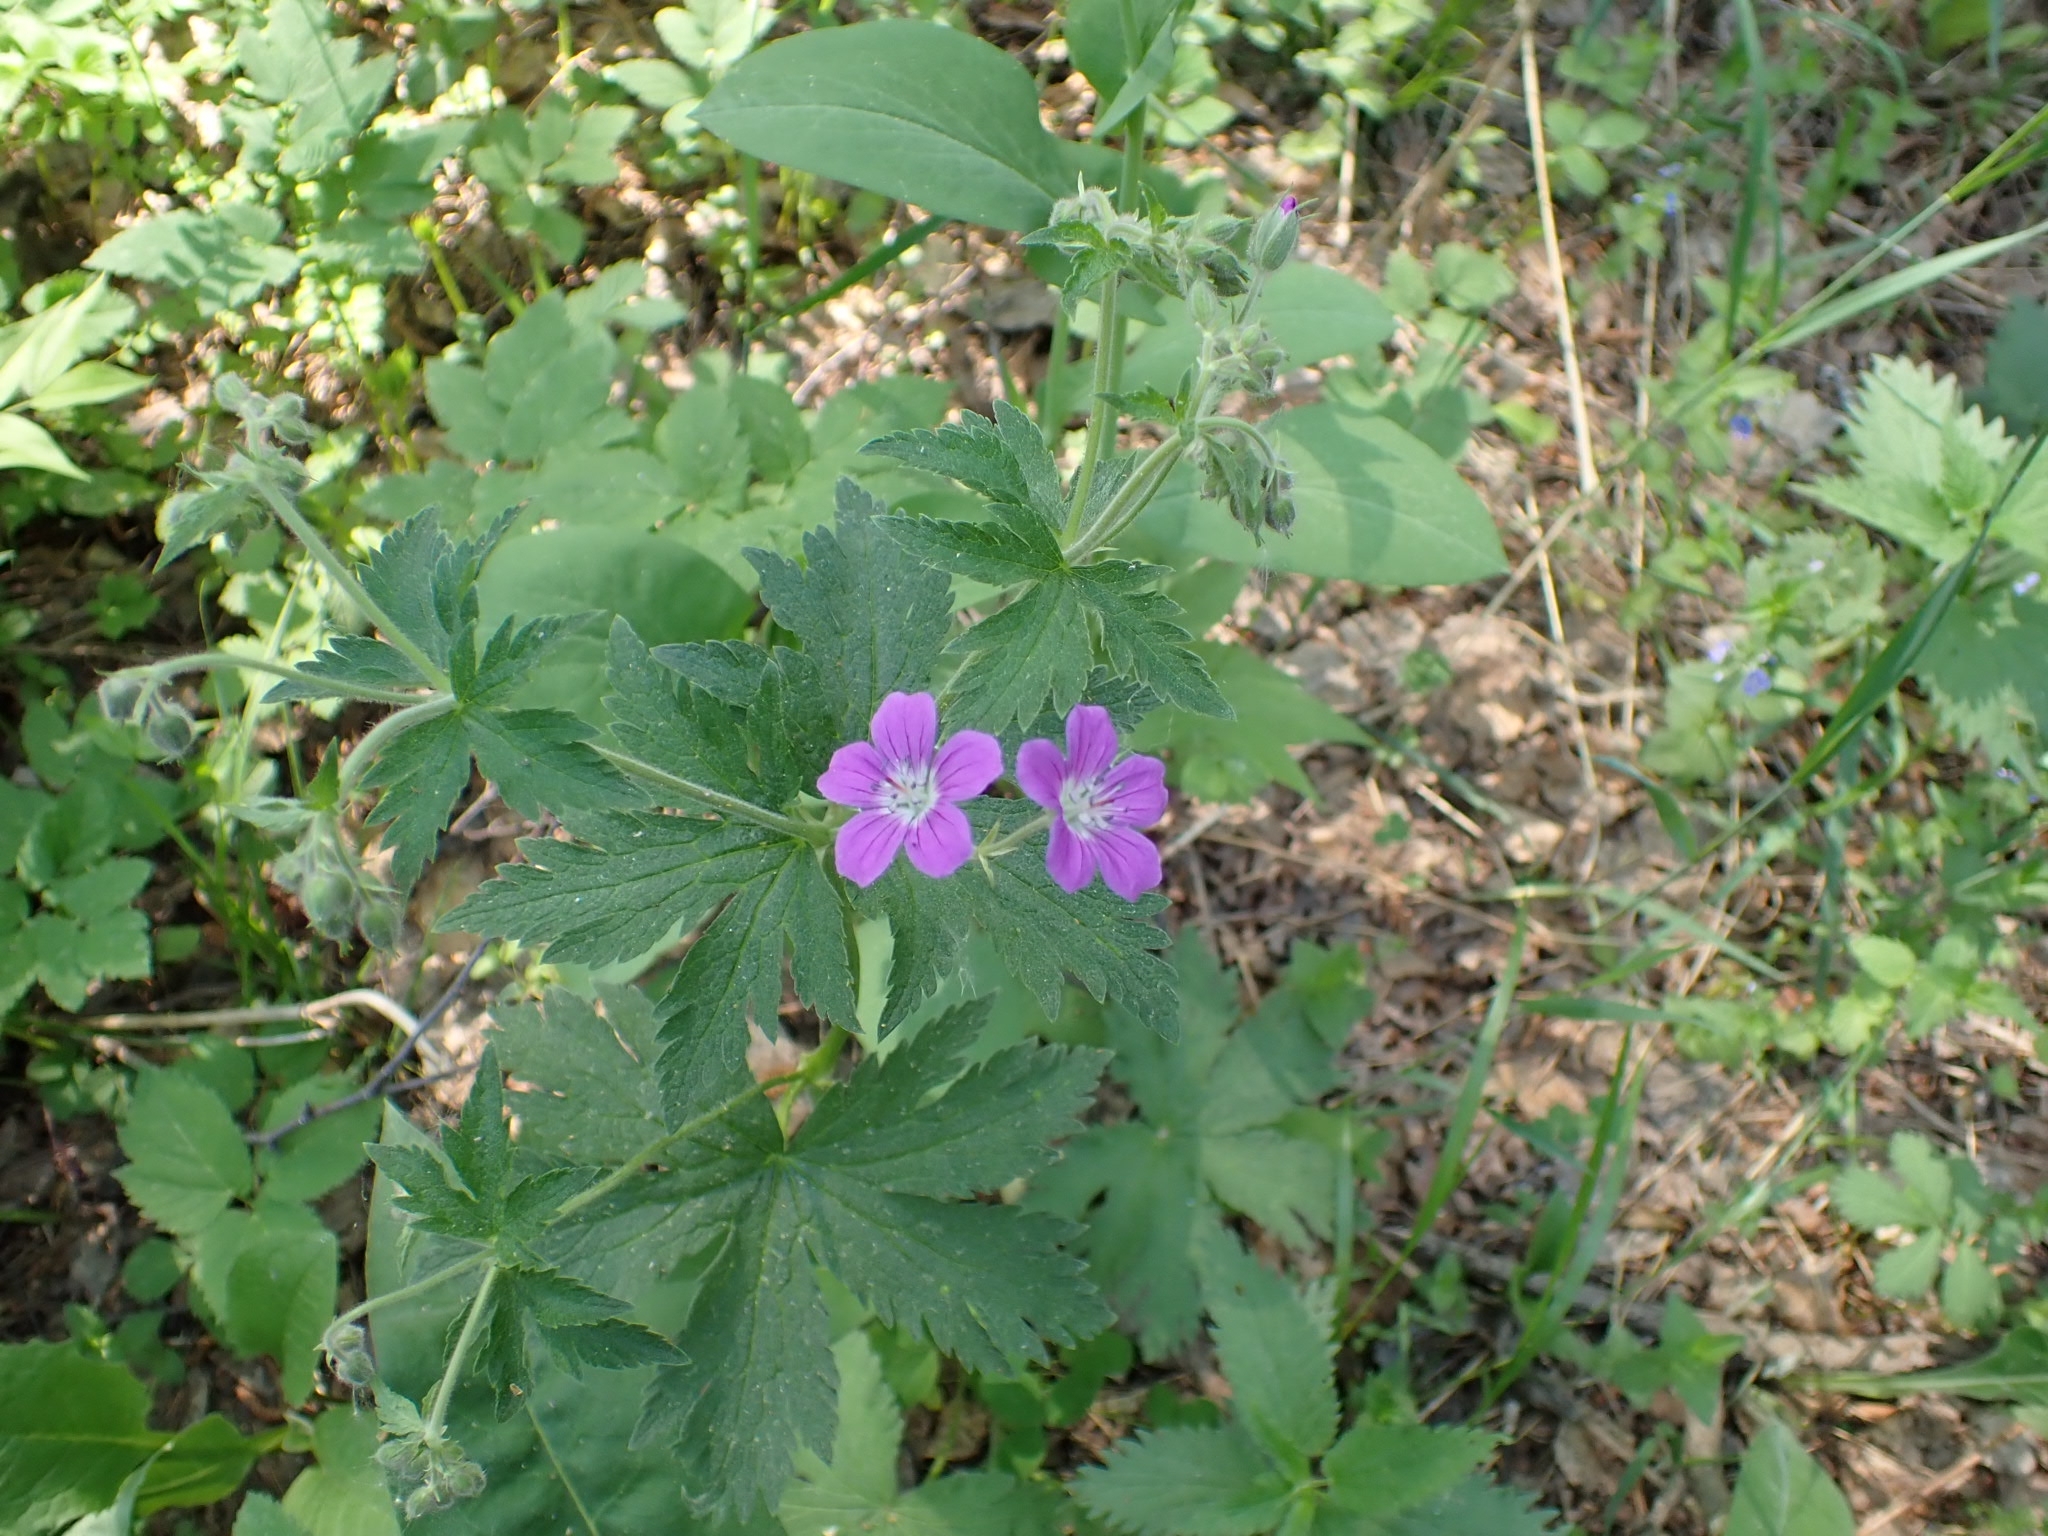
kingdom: Plantae
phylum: Tracheophyta
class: Magnoliopsida
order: Geraniales
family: Geraniaceae
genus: Geranium
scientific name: Geranium sylvaticum
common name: Wood crane's-bill
